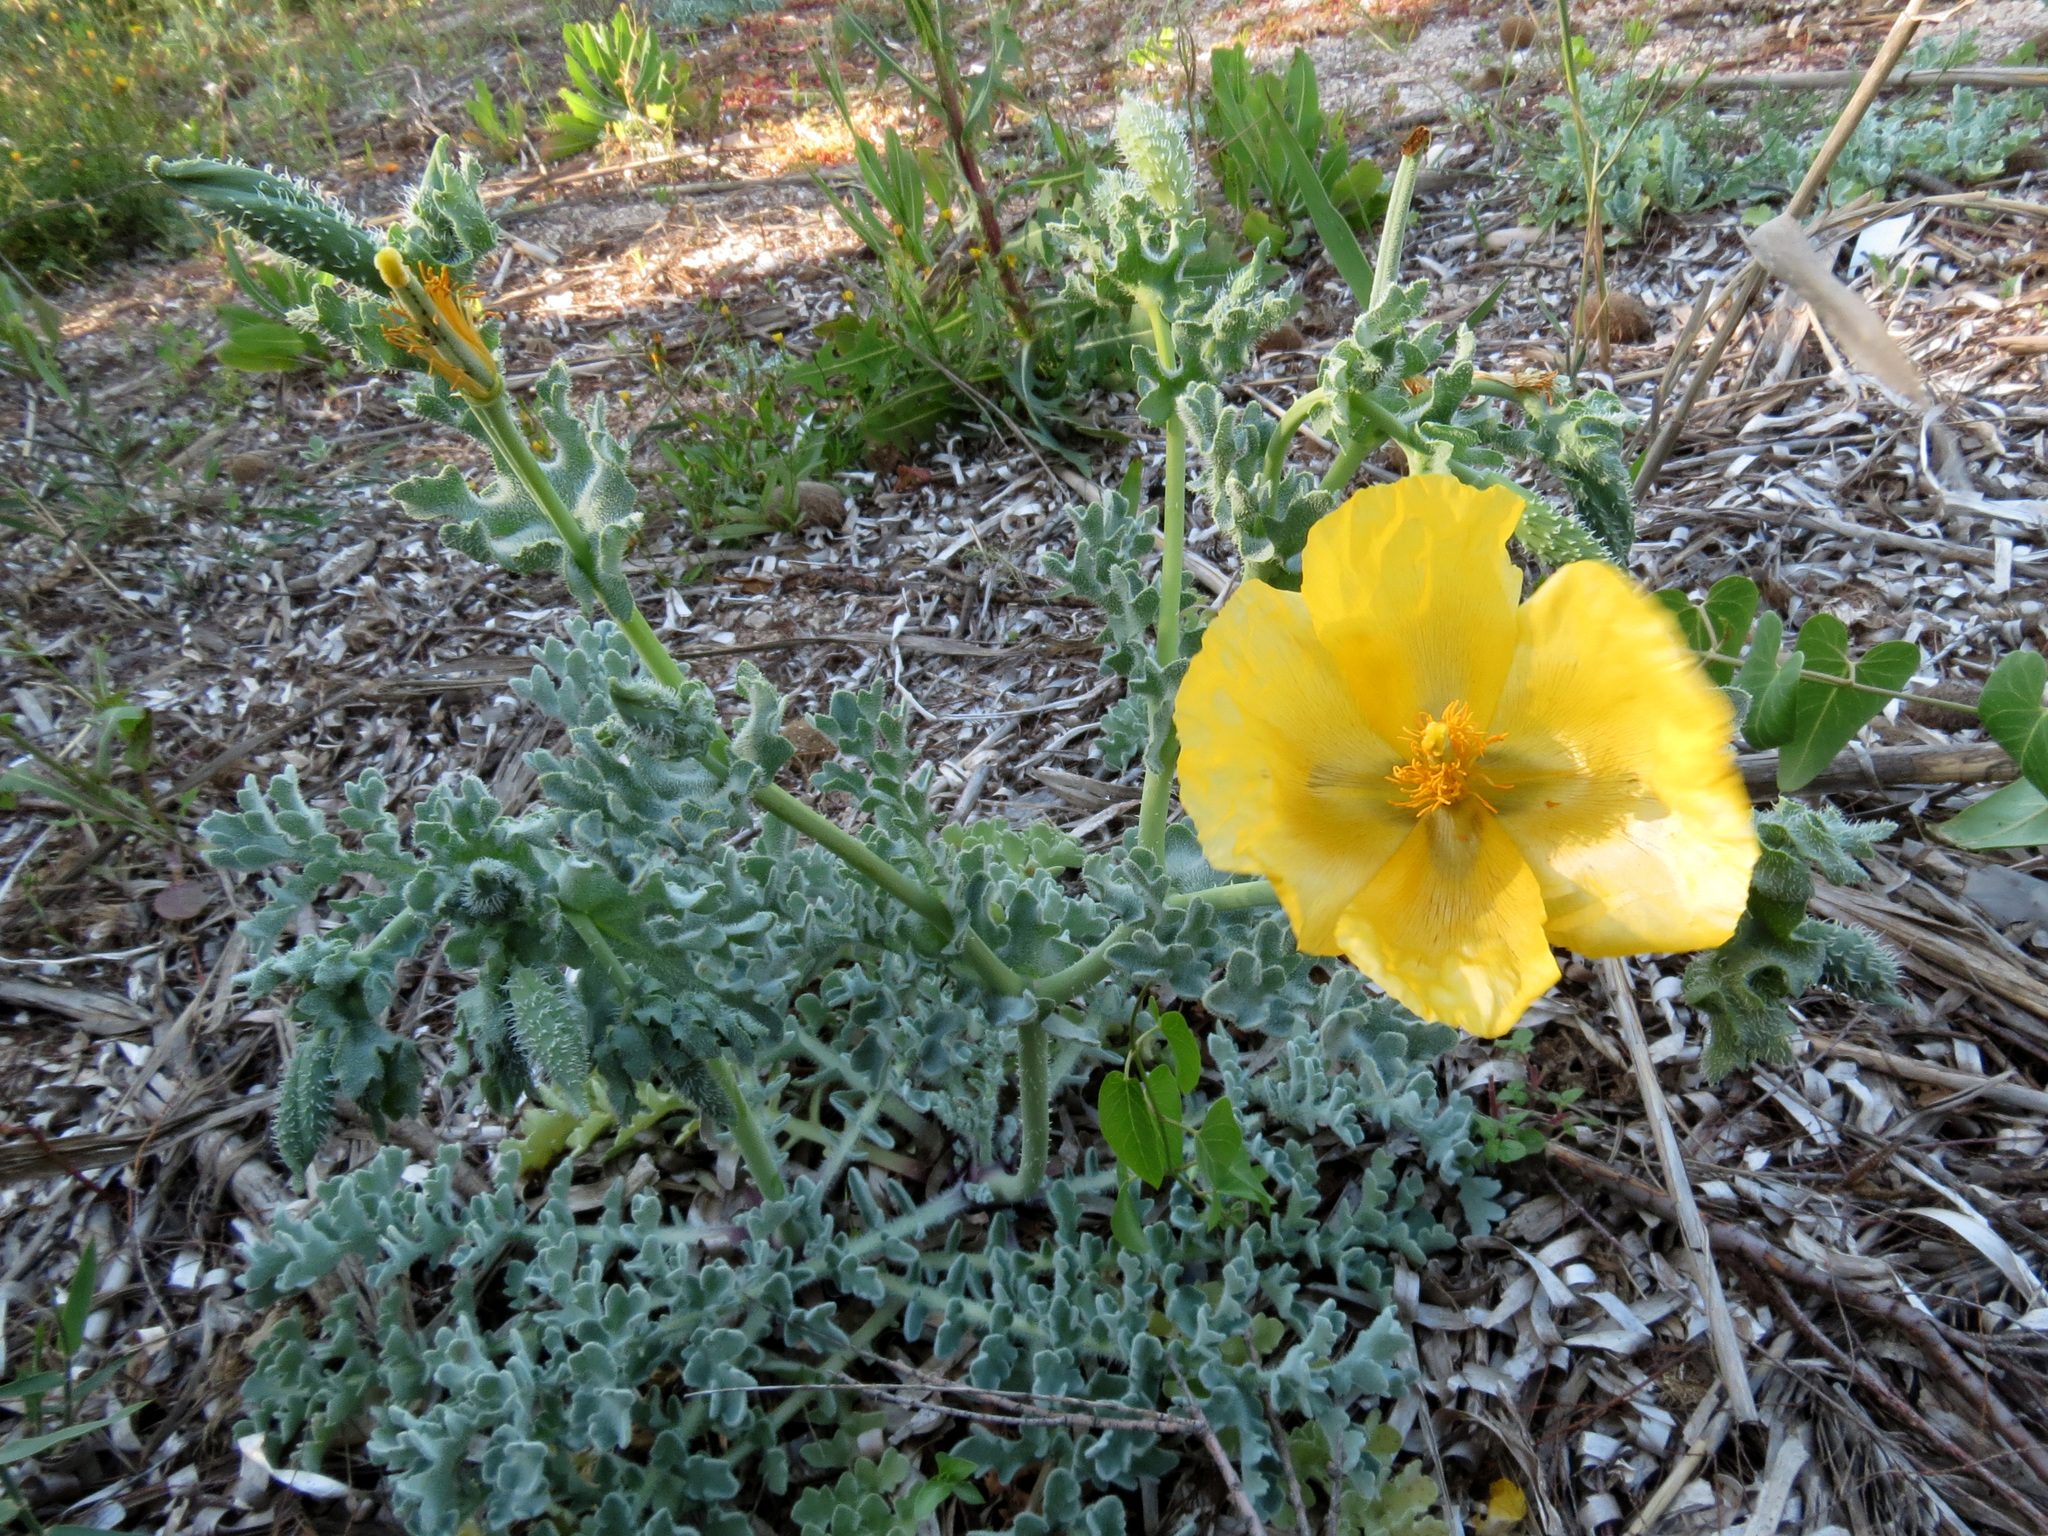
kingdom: Plantae
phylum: Tracheophyta
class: Magnoliopsida
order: Ranunculales
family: Papaveraceae
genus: Glaucium
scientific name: Glaucium flavum
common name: Yellow horned-poppy
